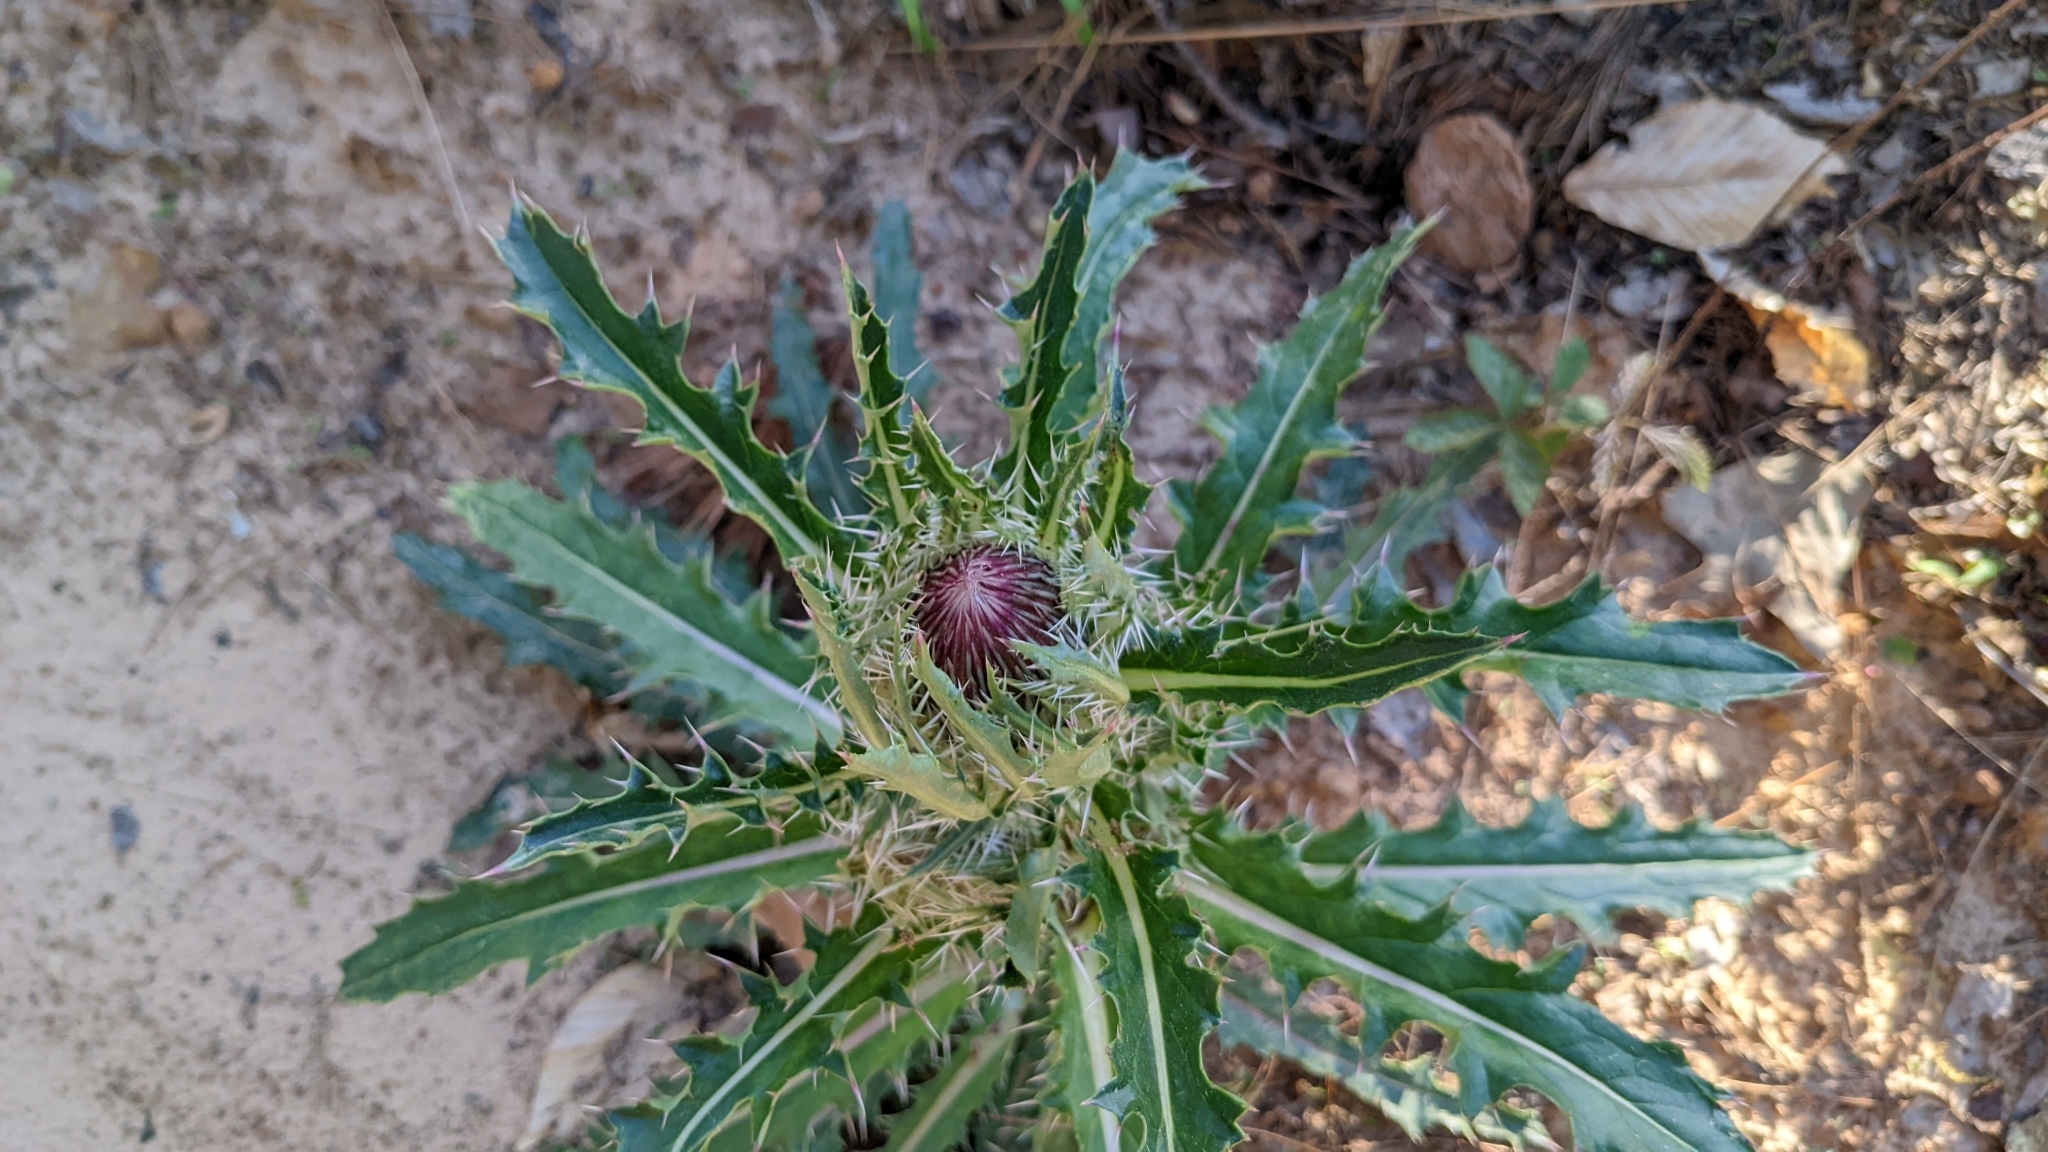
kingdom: Plantae
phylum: Tracheophyta
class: Magnoliopsida
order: Asterales
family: Asteraceae
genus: Cirsium
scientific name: Cirsium horridulum
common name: Bristly thistle
